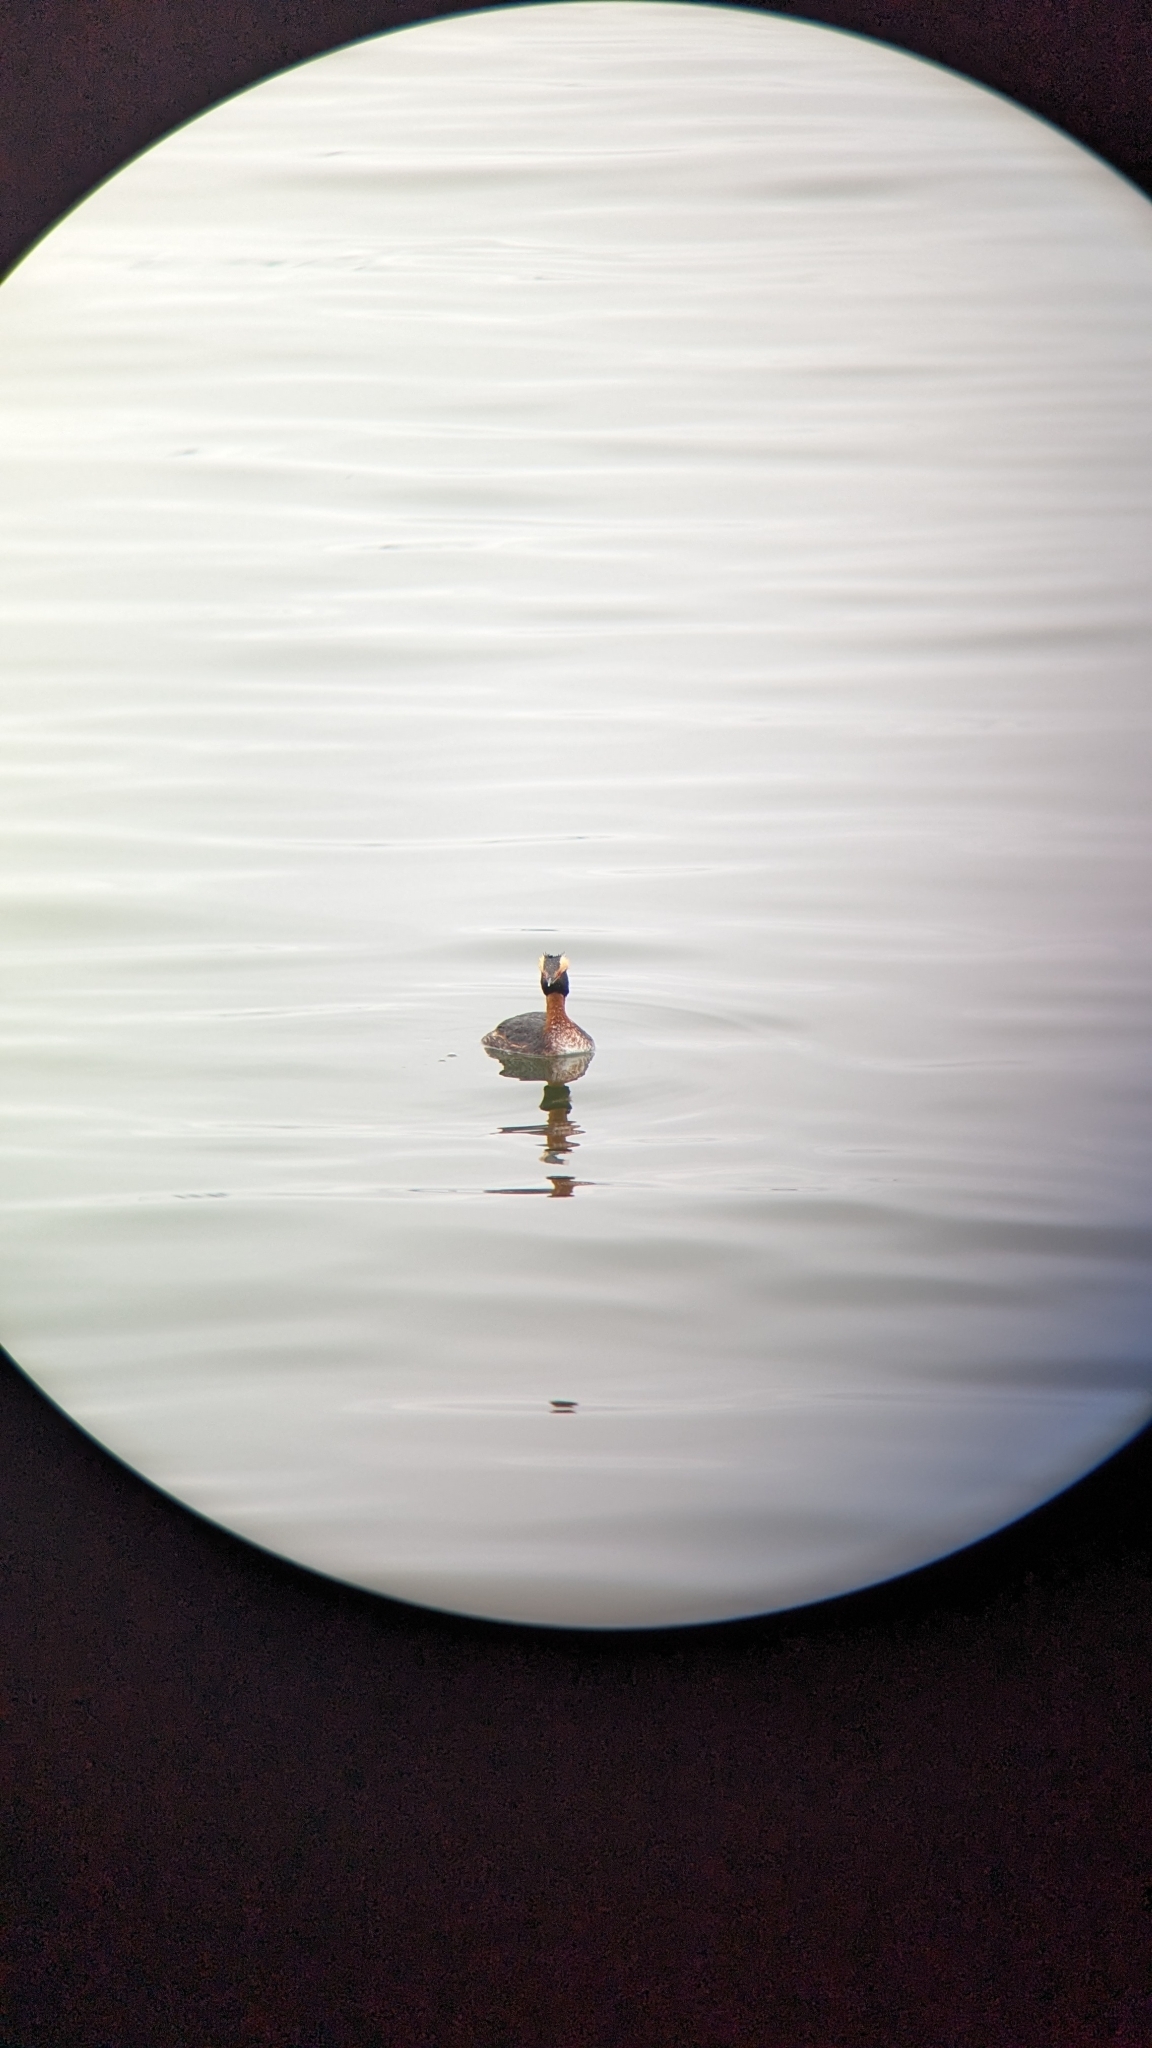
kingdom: Animalia
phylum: Chordata
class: Aves
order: Podicipediformes
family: Podicipedidae
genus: Podiceps
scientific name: Podiceps auritus
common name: Horned grebe
